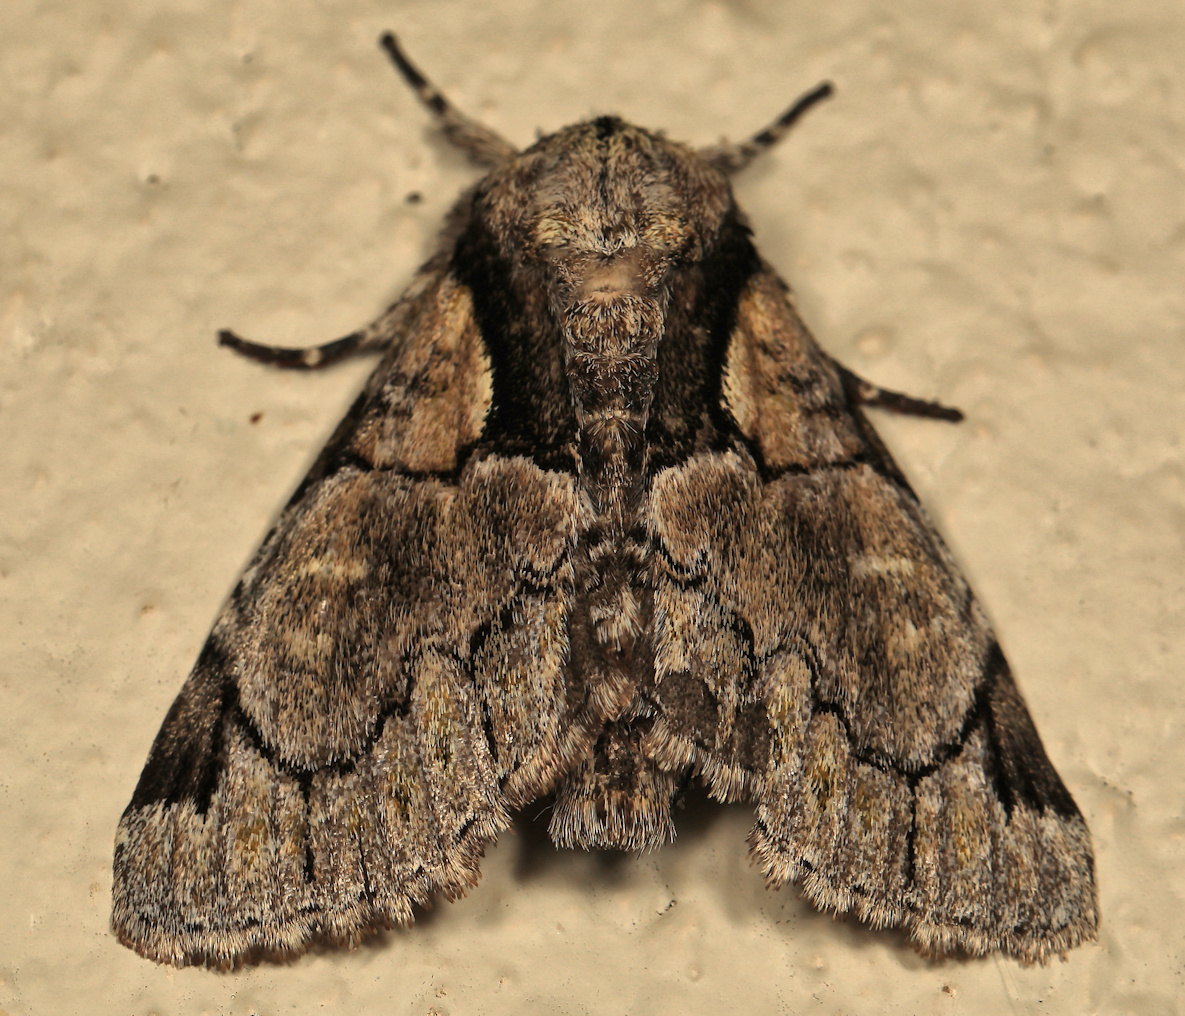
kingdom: Animalia
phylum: Arthropoda
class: Insecta
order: Lepidoptera
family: Erebidae
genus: Auchenisa
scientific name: Auchenisa berenice
